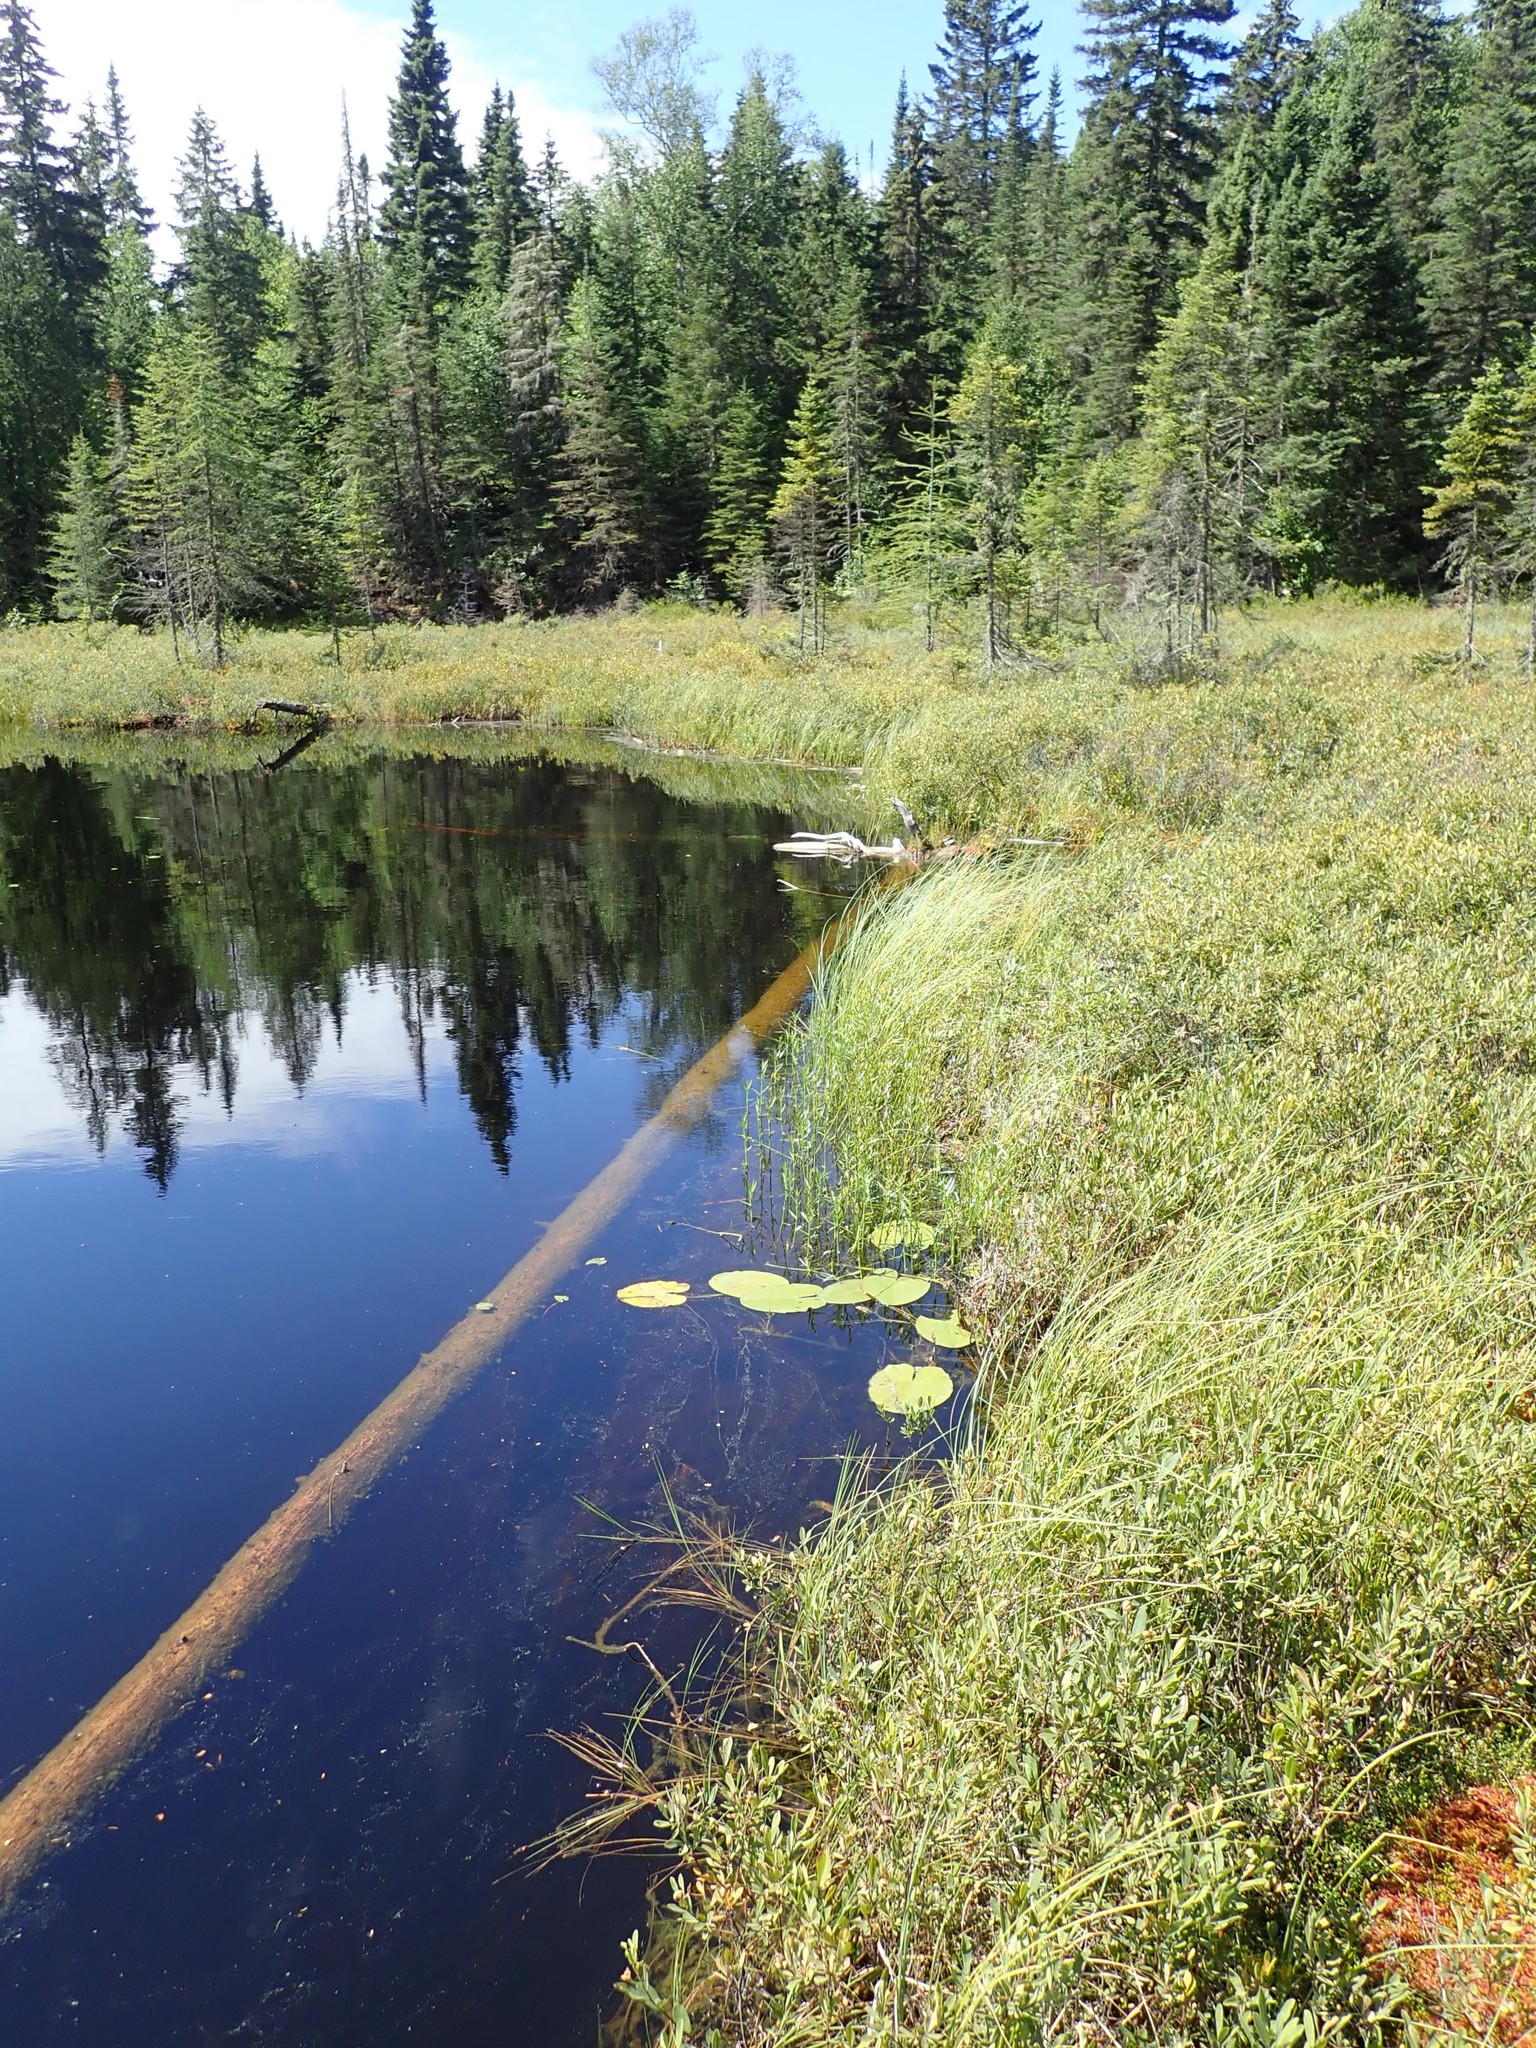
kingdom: Plantae
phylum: Tracheophyta
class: Magnoliopsida
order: Nymphaeales
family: Nymphaeaceae
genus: Nuphar
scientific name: Nuphar variegata
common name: Beaver-root
